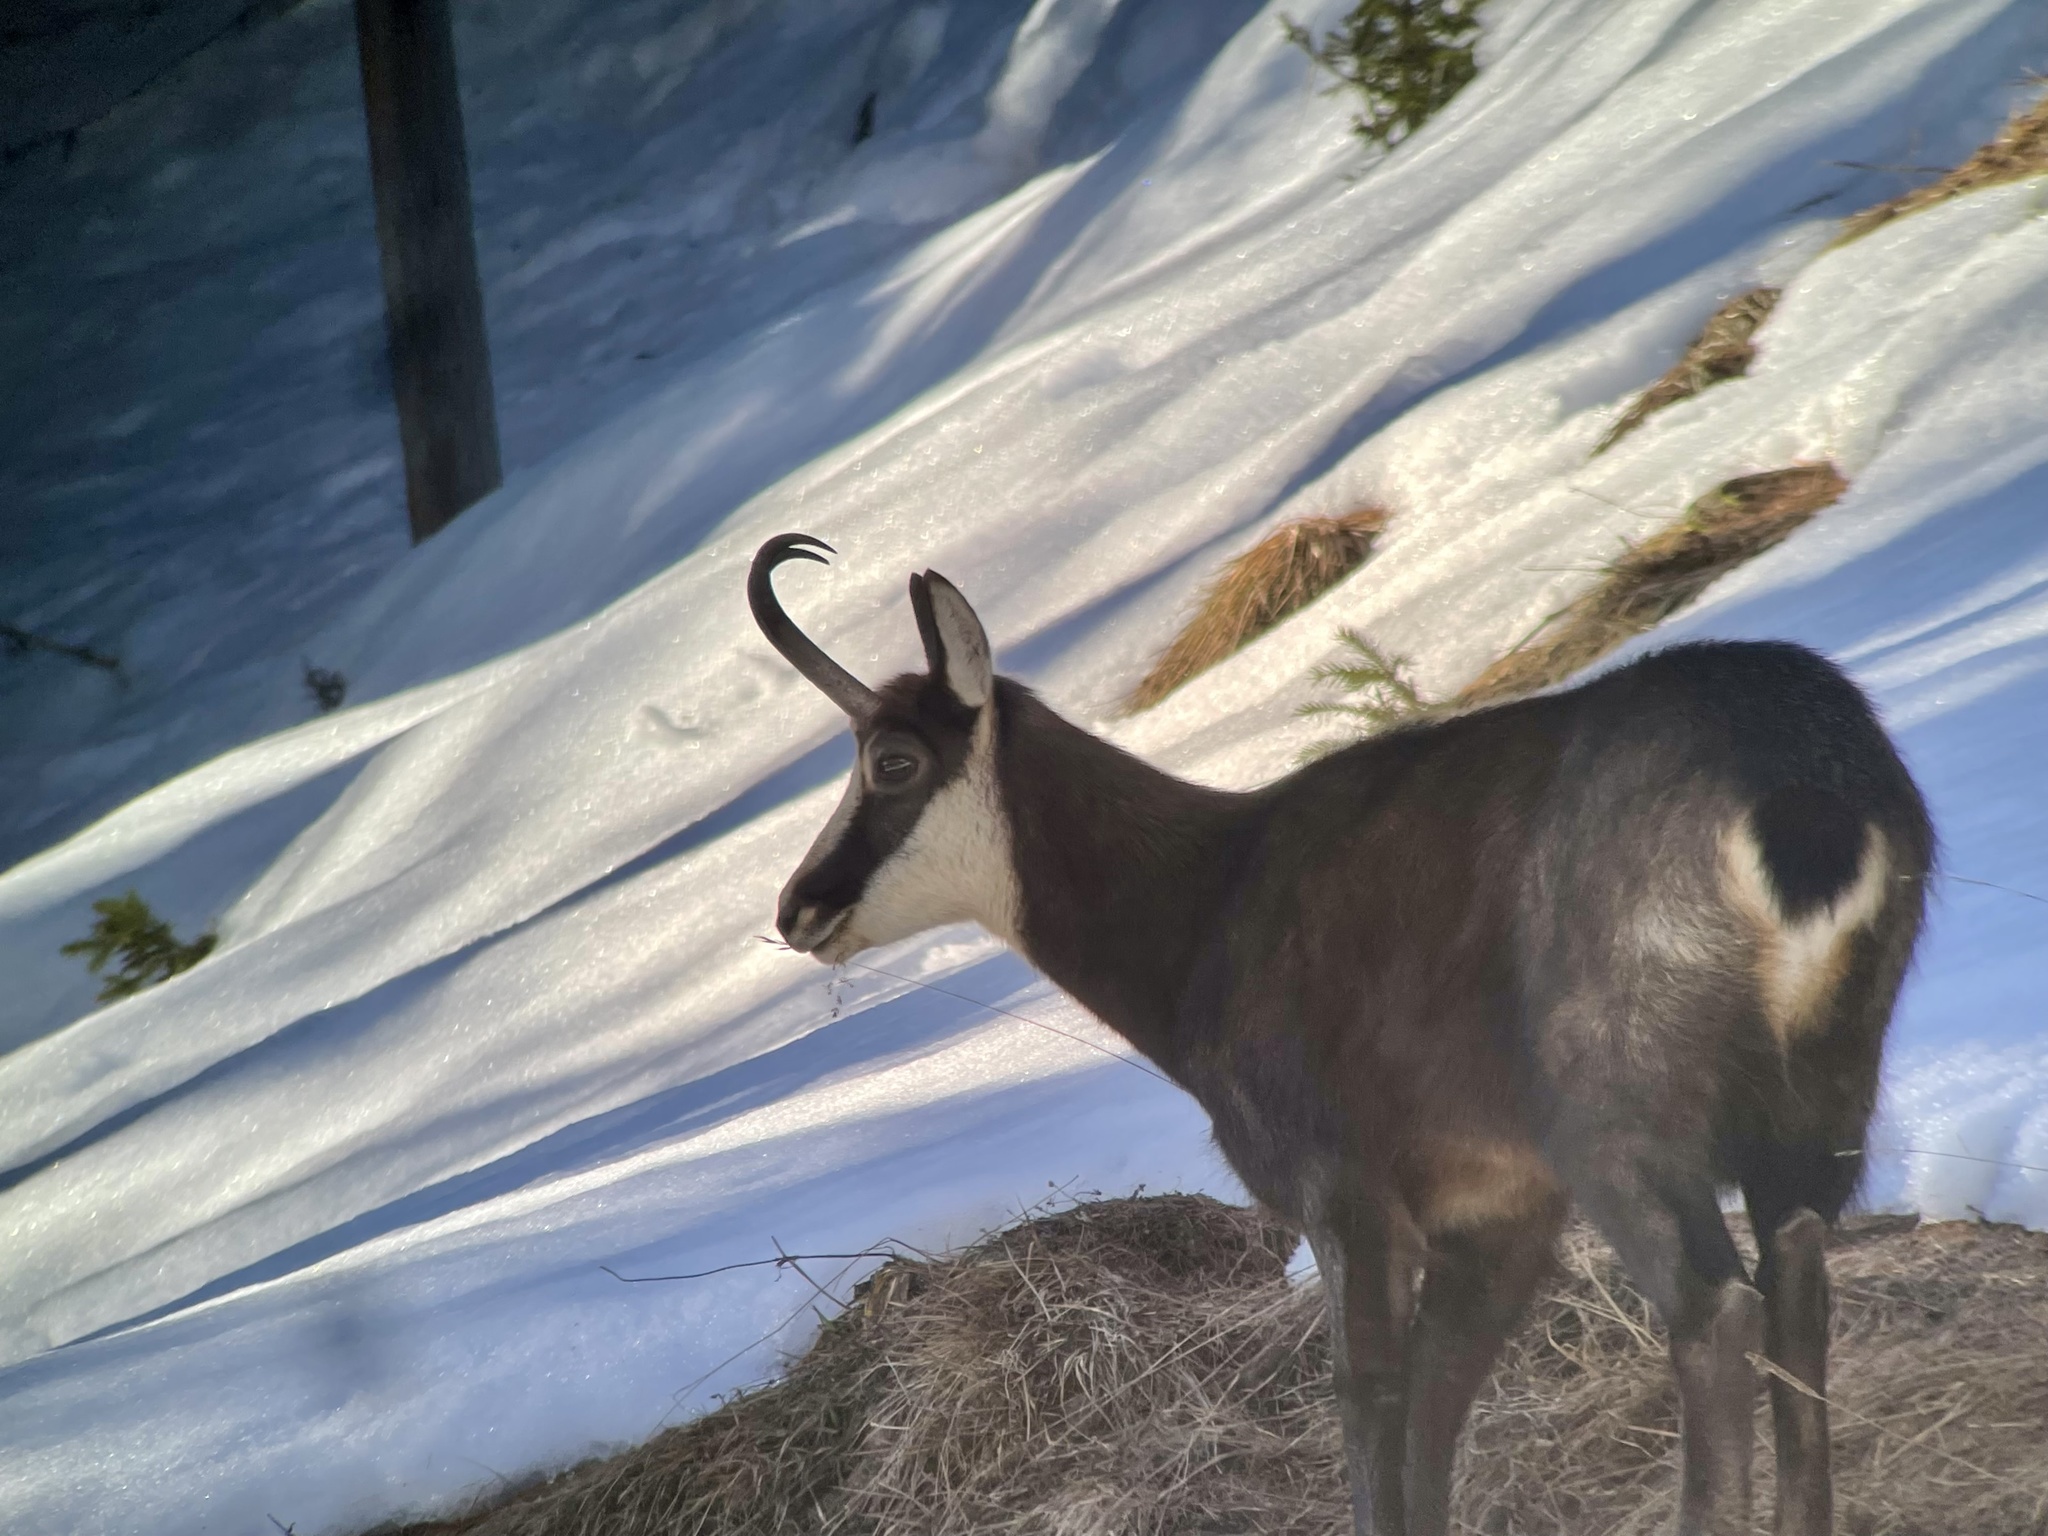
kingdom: Animalia
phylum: Chordata
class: Mammalia
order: Artiodactyla
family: Bovidae
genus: Rupicapra
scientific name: Rupicapra rupicapra
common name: Chamois
